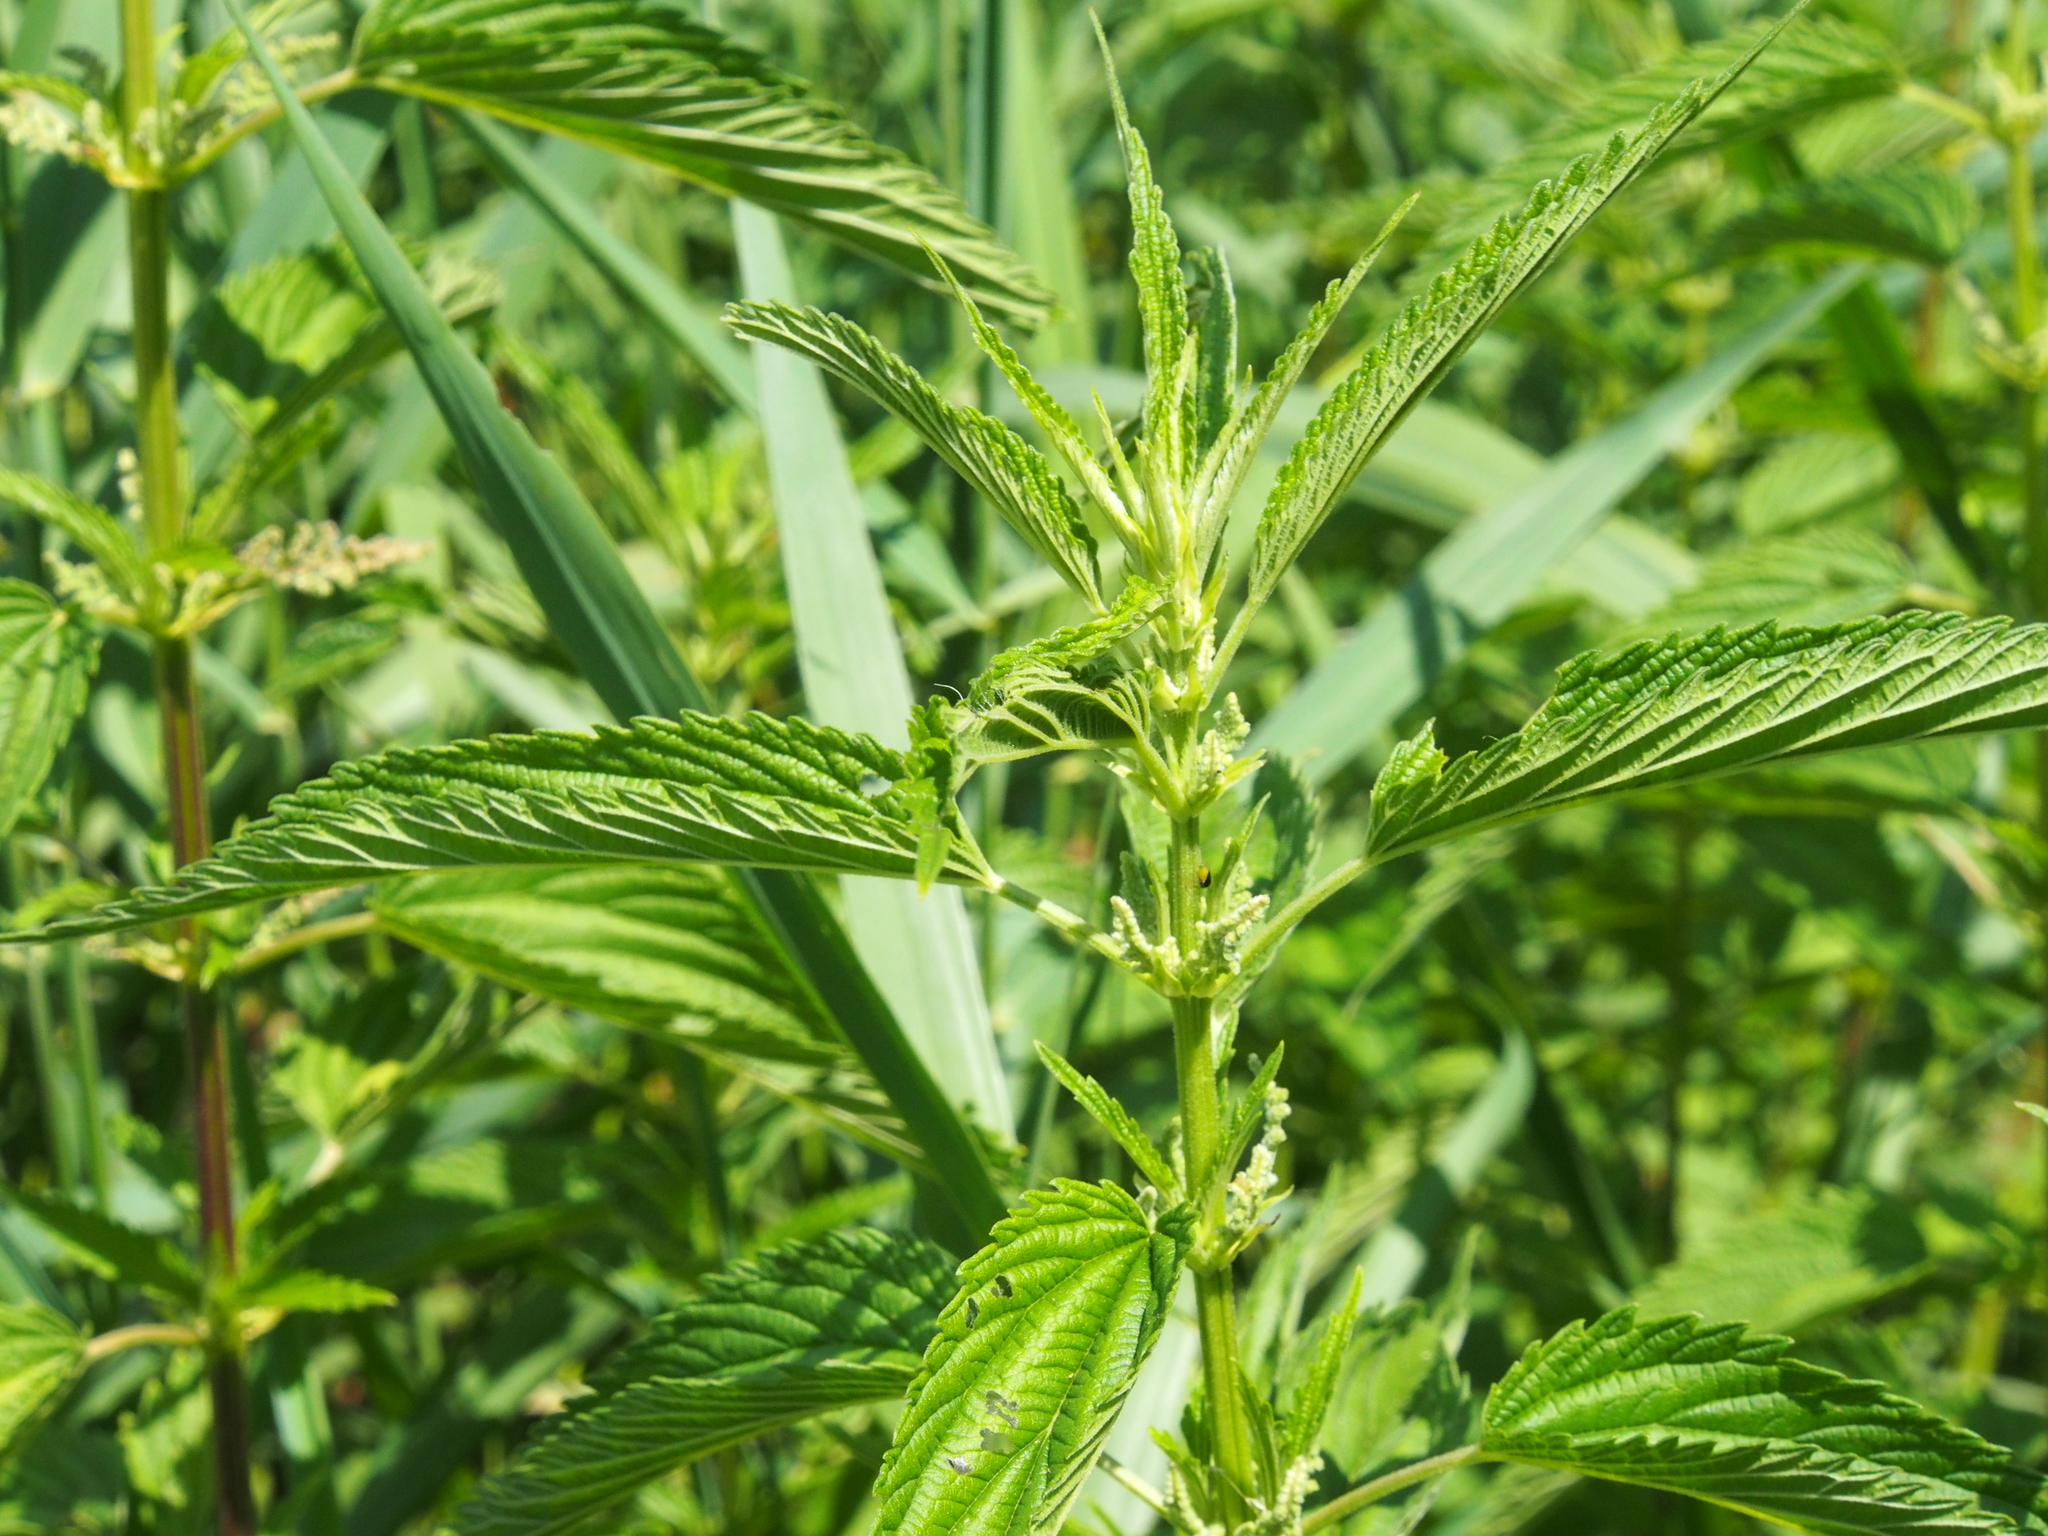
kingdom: Plantae
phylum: Tracheophyta
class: Magnoliopsida
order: Rosales
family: Urticaceae
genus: Urtica
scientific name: Urtica dioica
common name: Common nettle
